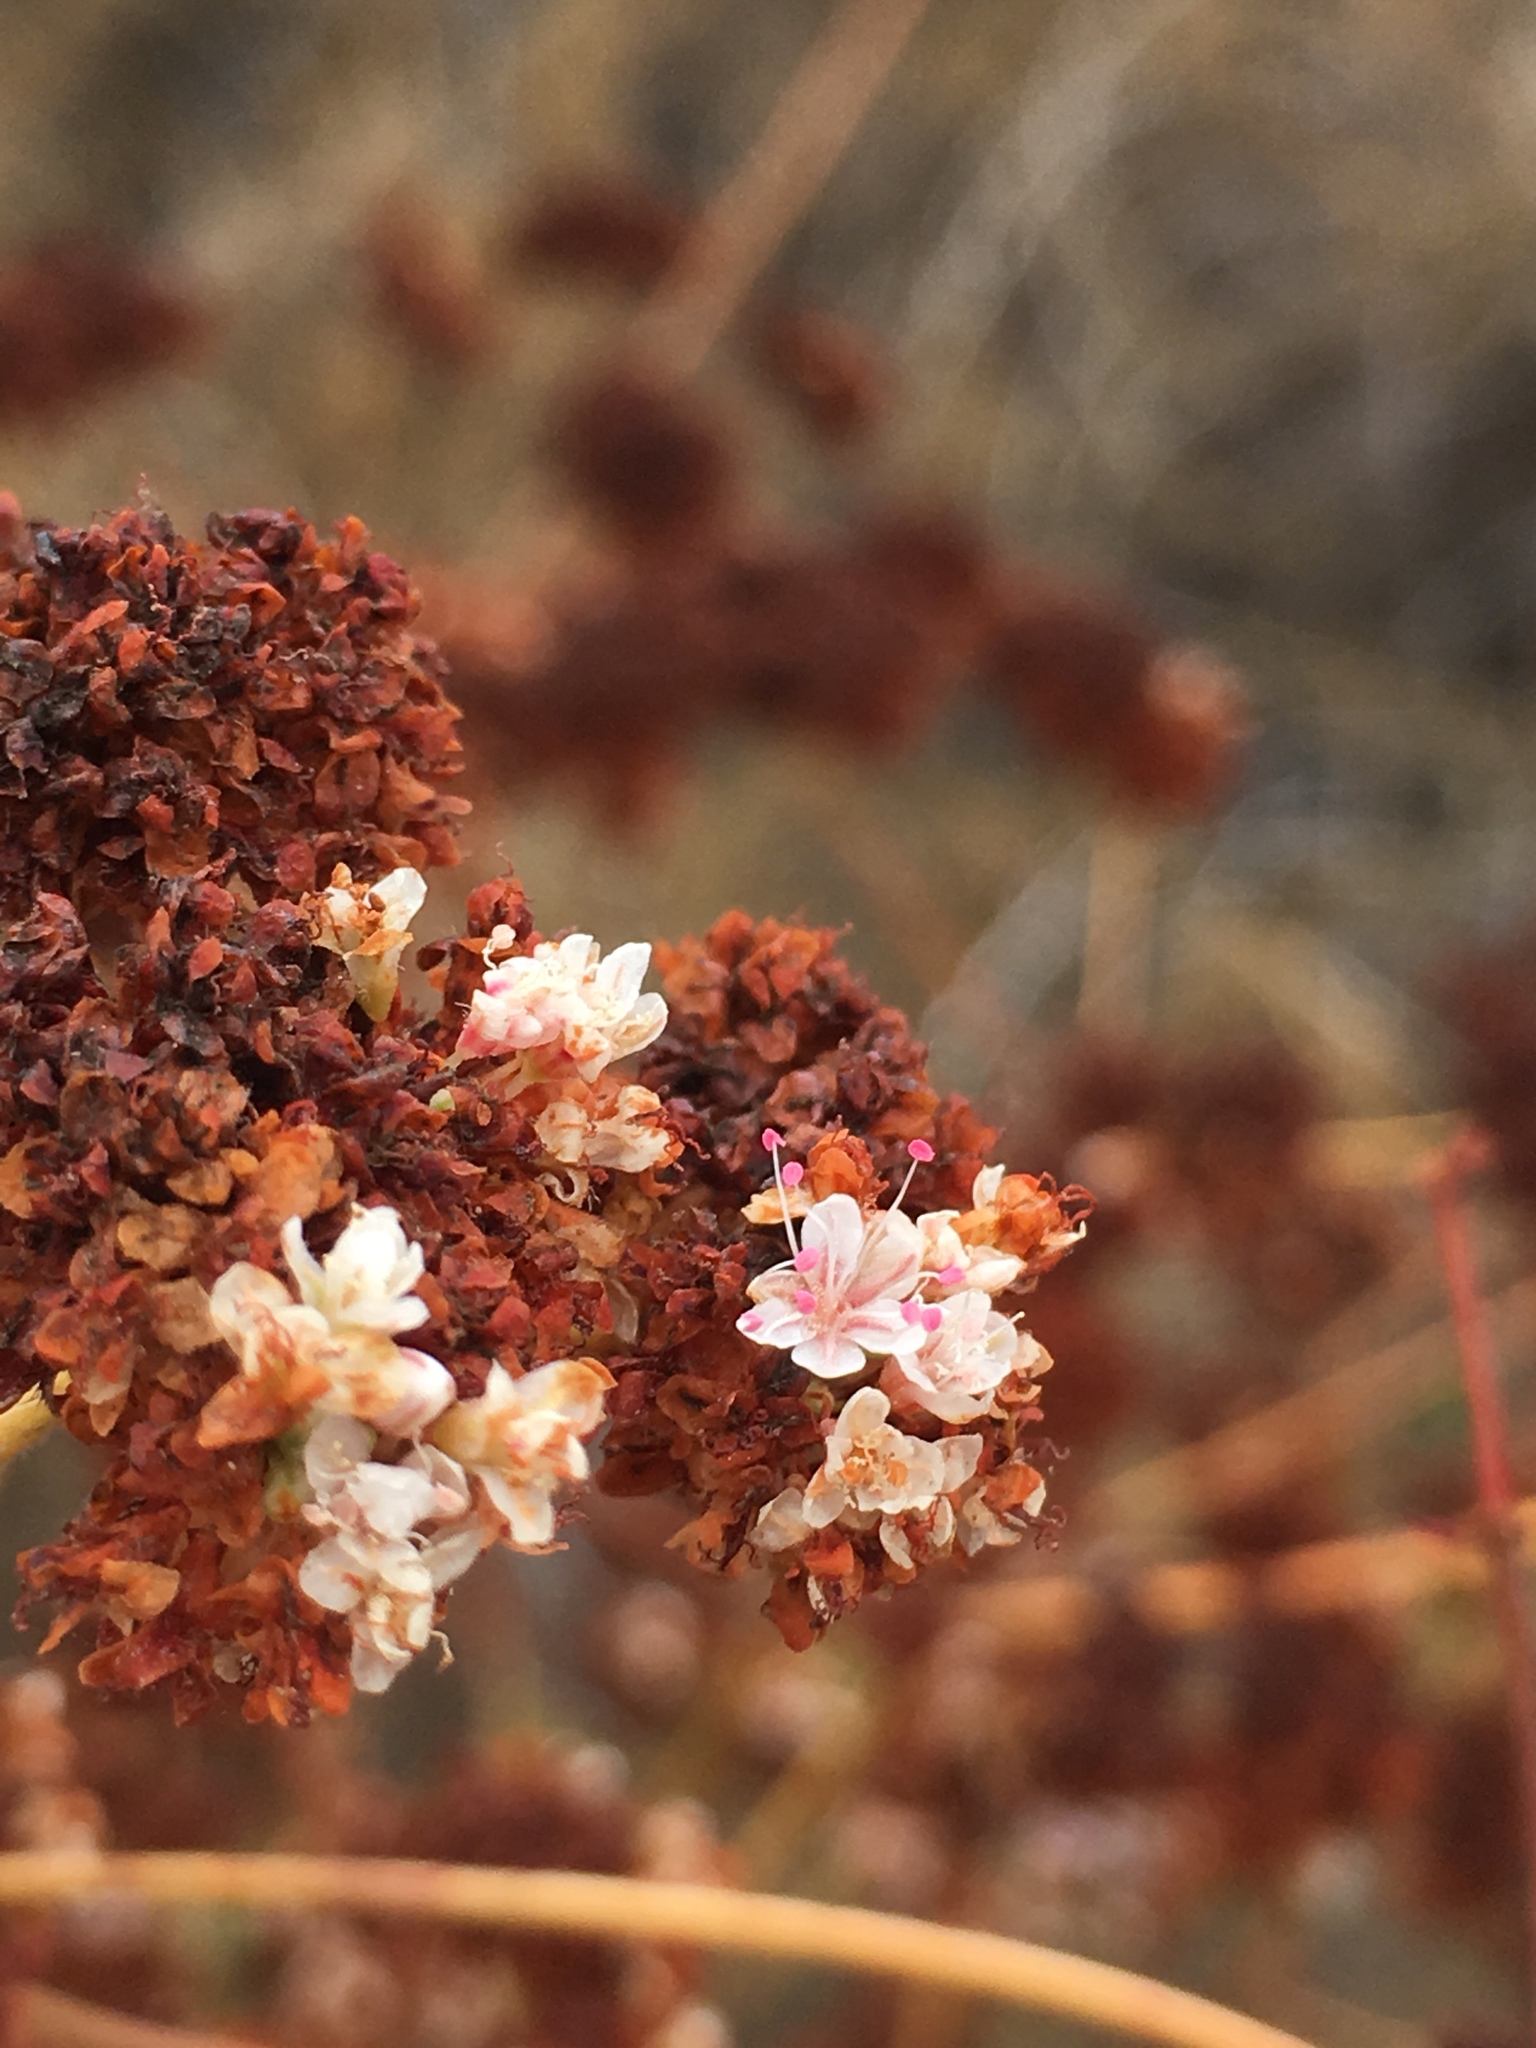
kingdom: Plantae
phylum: Tracheophyta
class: Magnoliopsida
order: Caryophyllales
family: Polygonaceae
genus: Eriogonum
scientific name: Eriogonum fasciculatum
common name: California wild buckwheat
